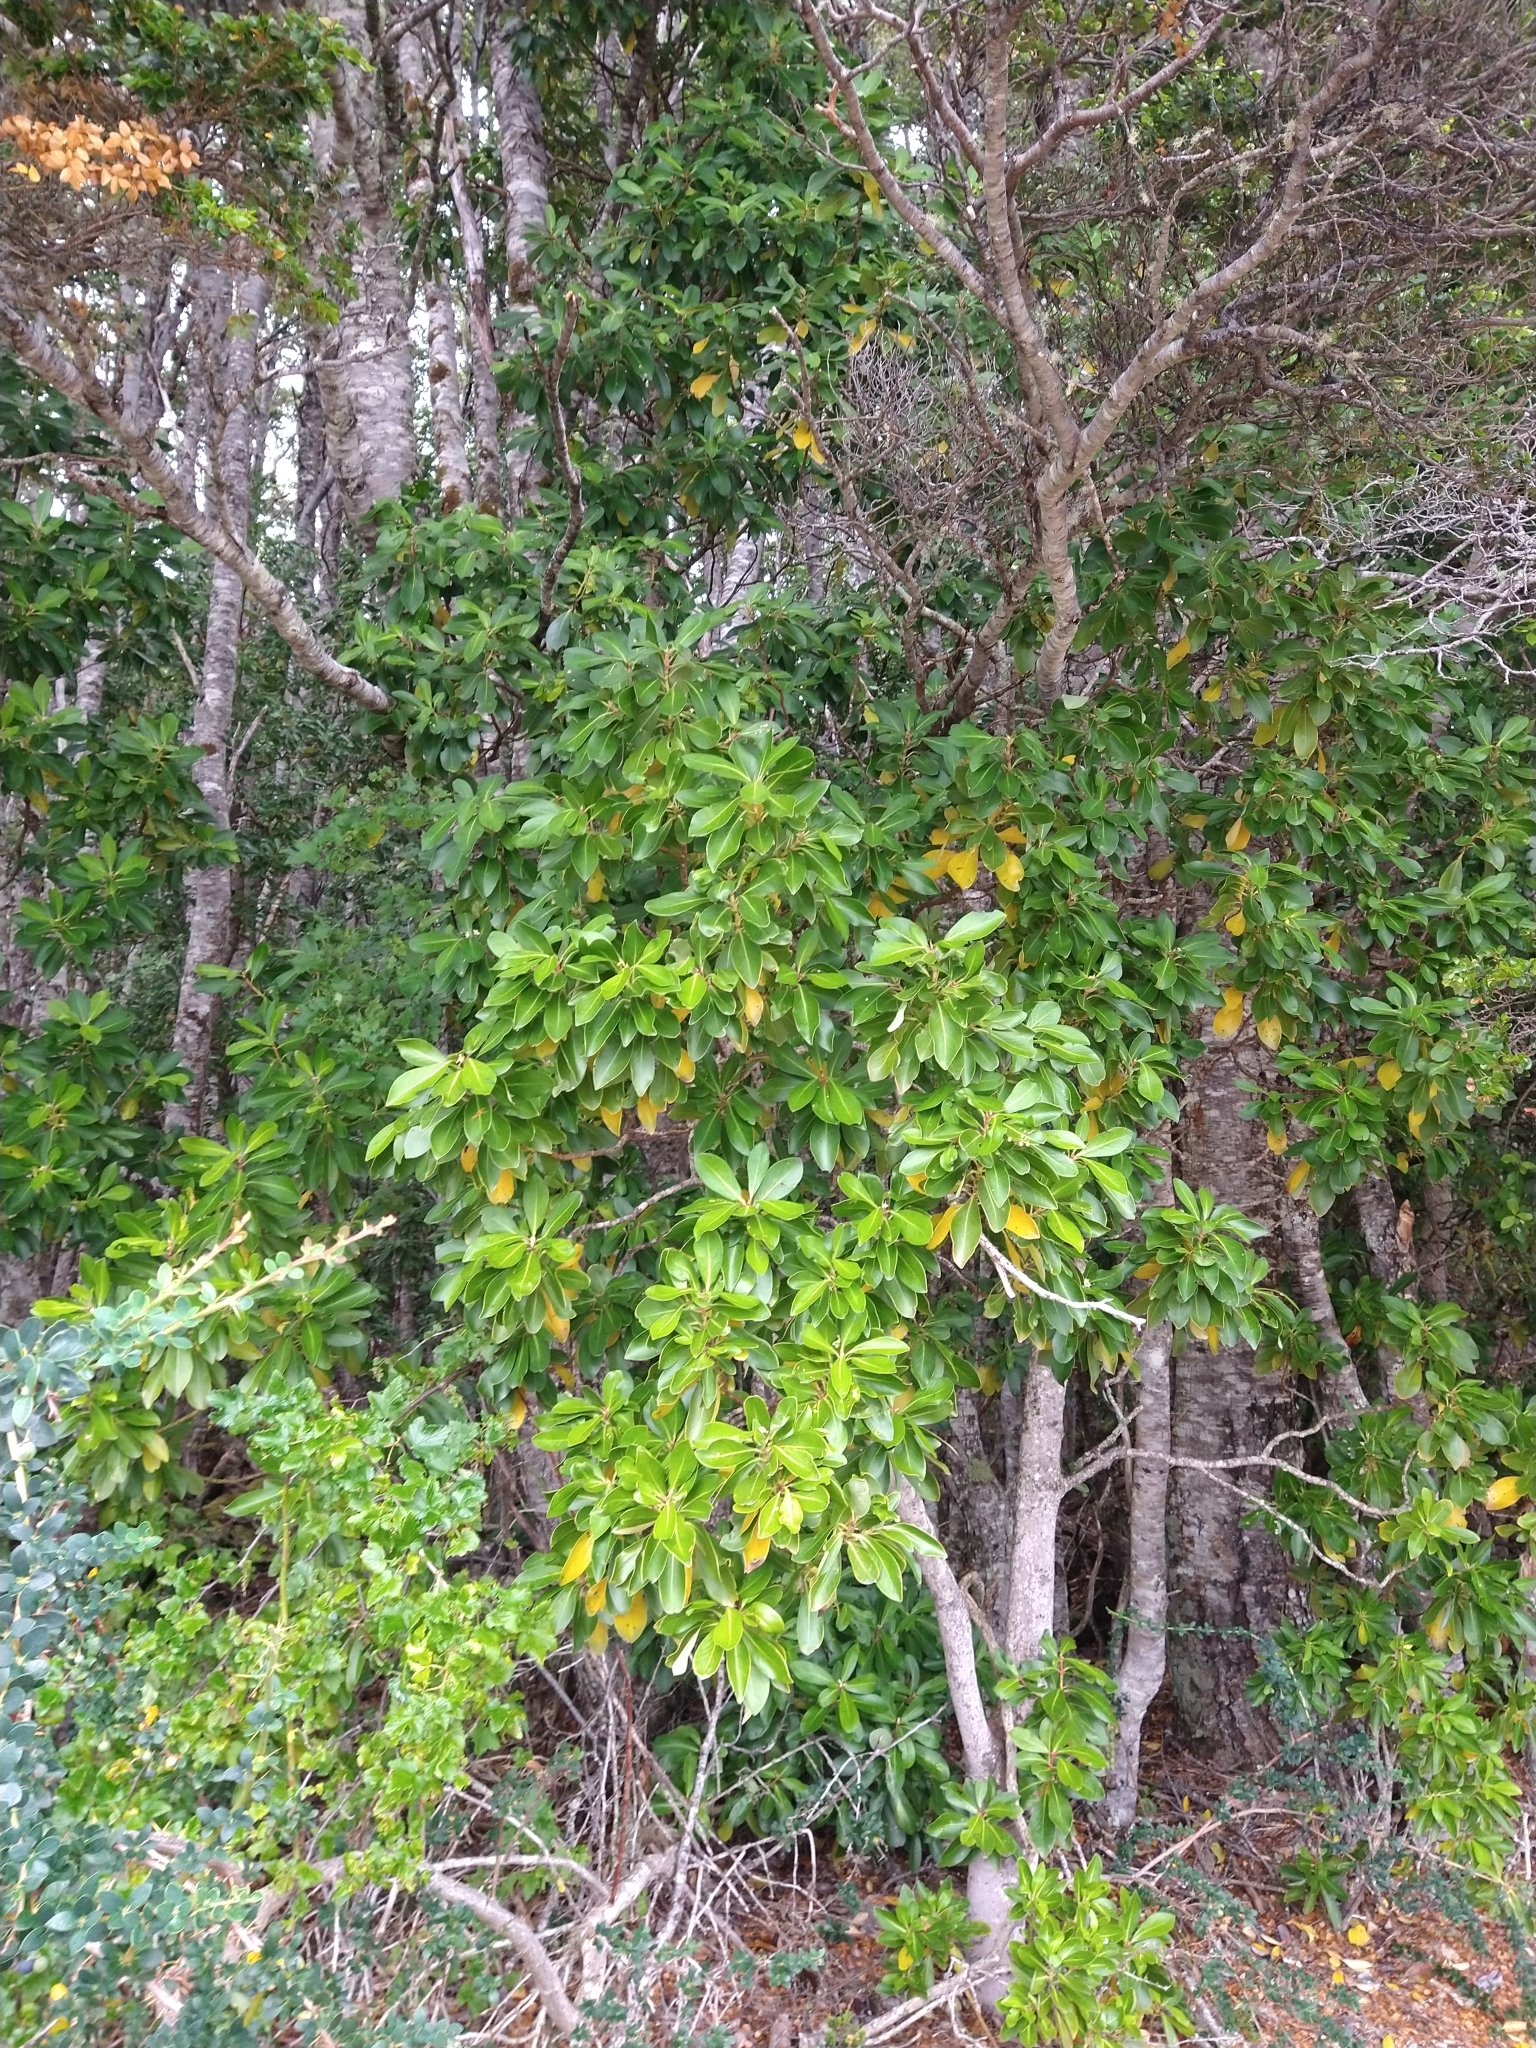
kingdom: Plantae
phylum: Tracheophyta
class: Magnoliopsida
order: Canellales
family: Winteraceae
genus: Drimys
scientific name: Drimys winteri
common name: Winter's-bark
